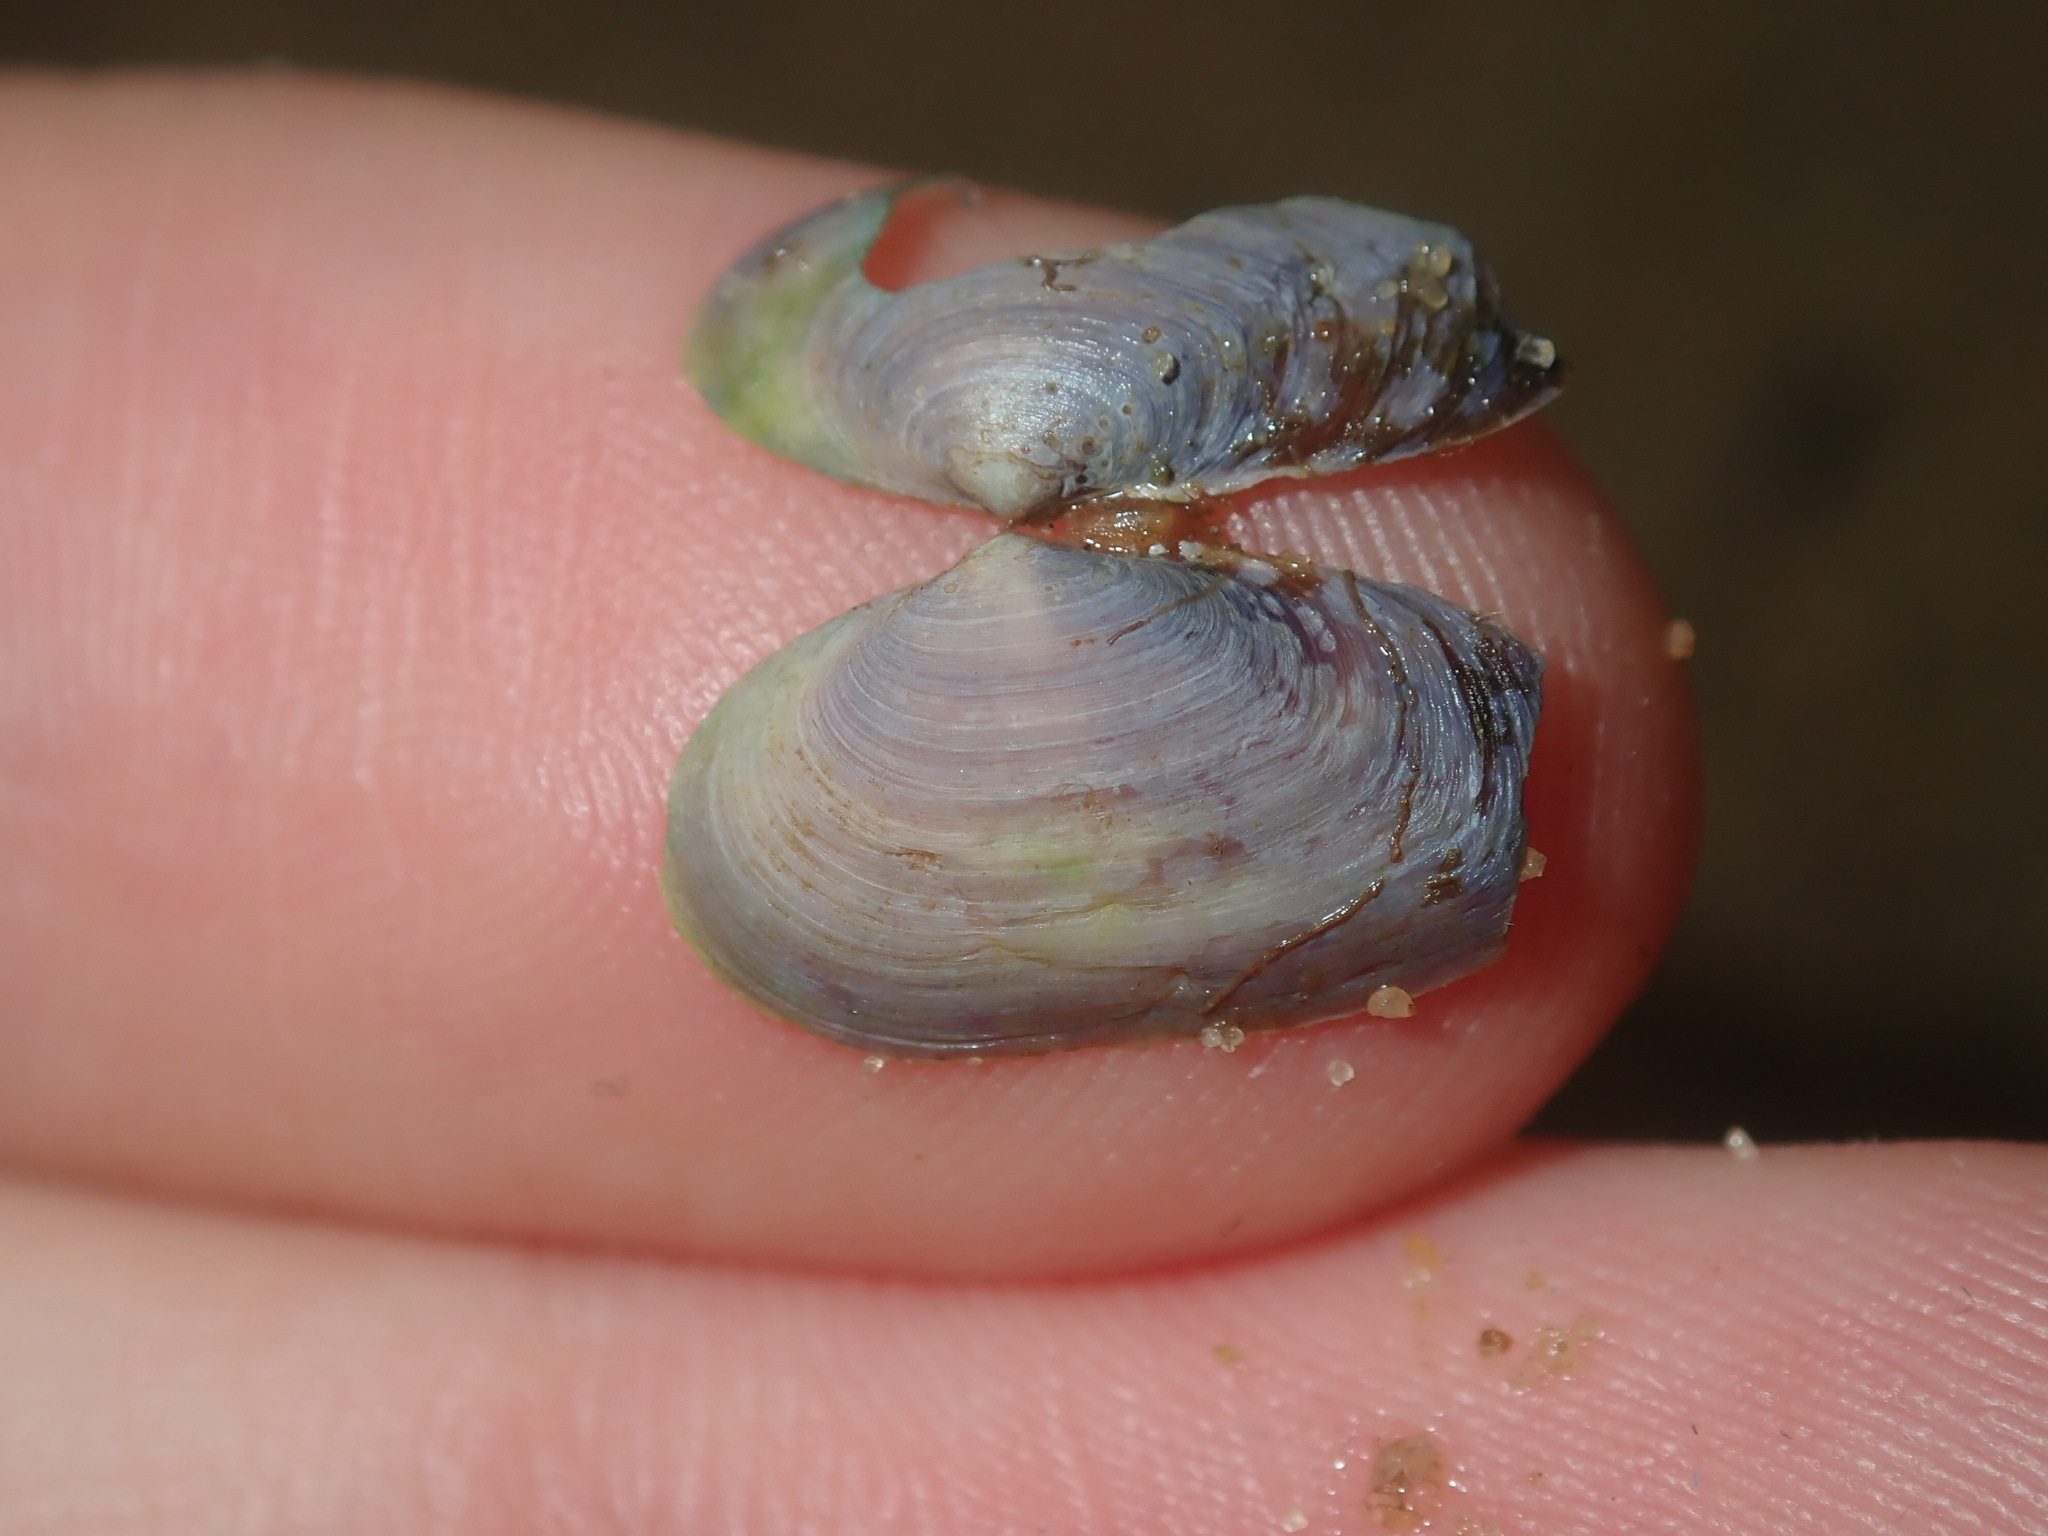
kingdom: Animalia
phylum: Mollusca
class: Bivalvia
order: Venerida
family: Glauconomidae
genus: Glauconome
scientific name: Glauconome radiata
